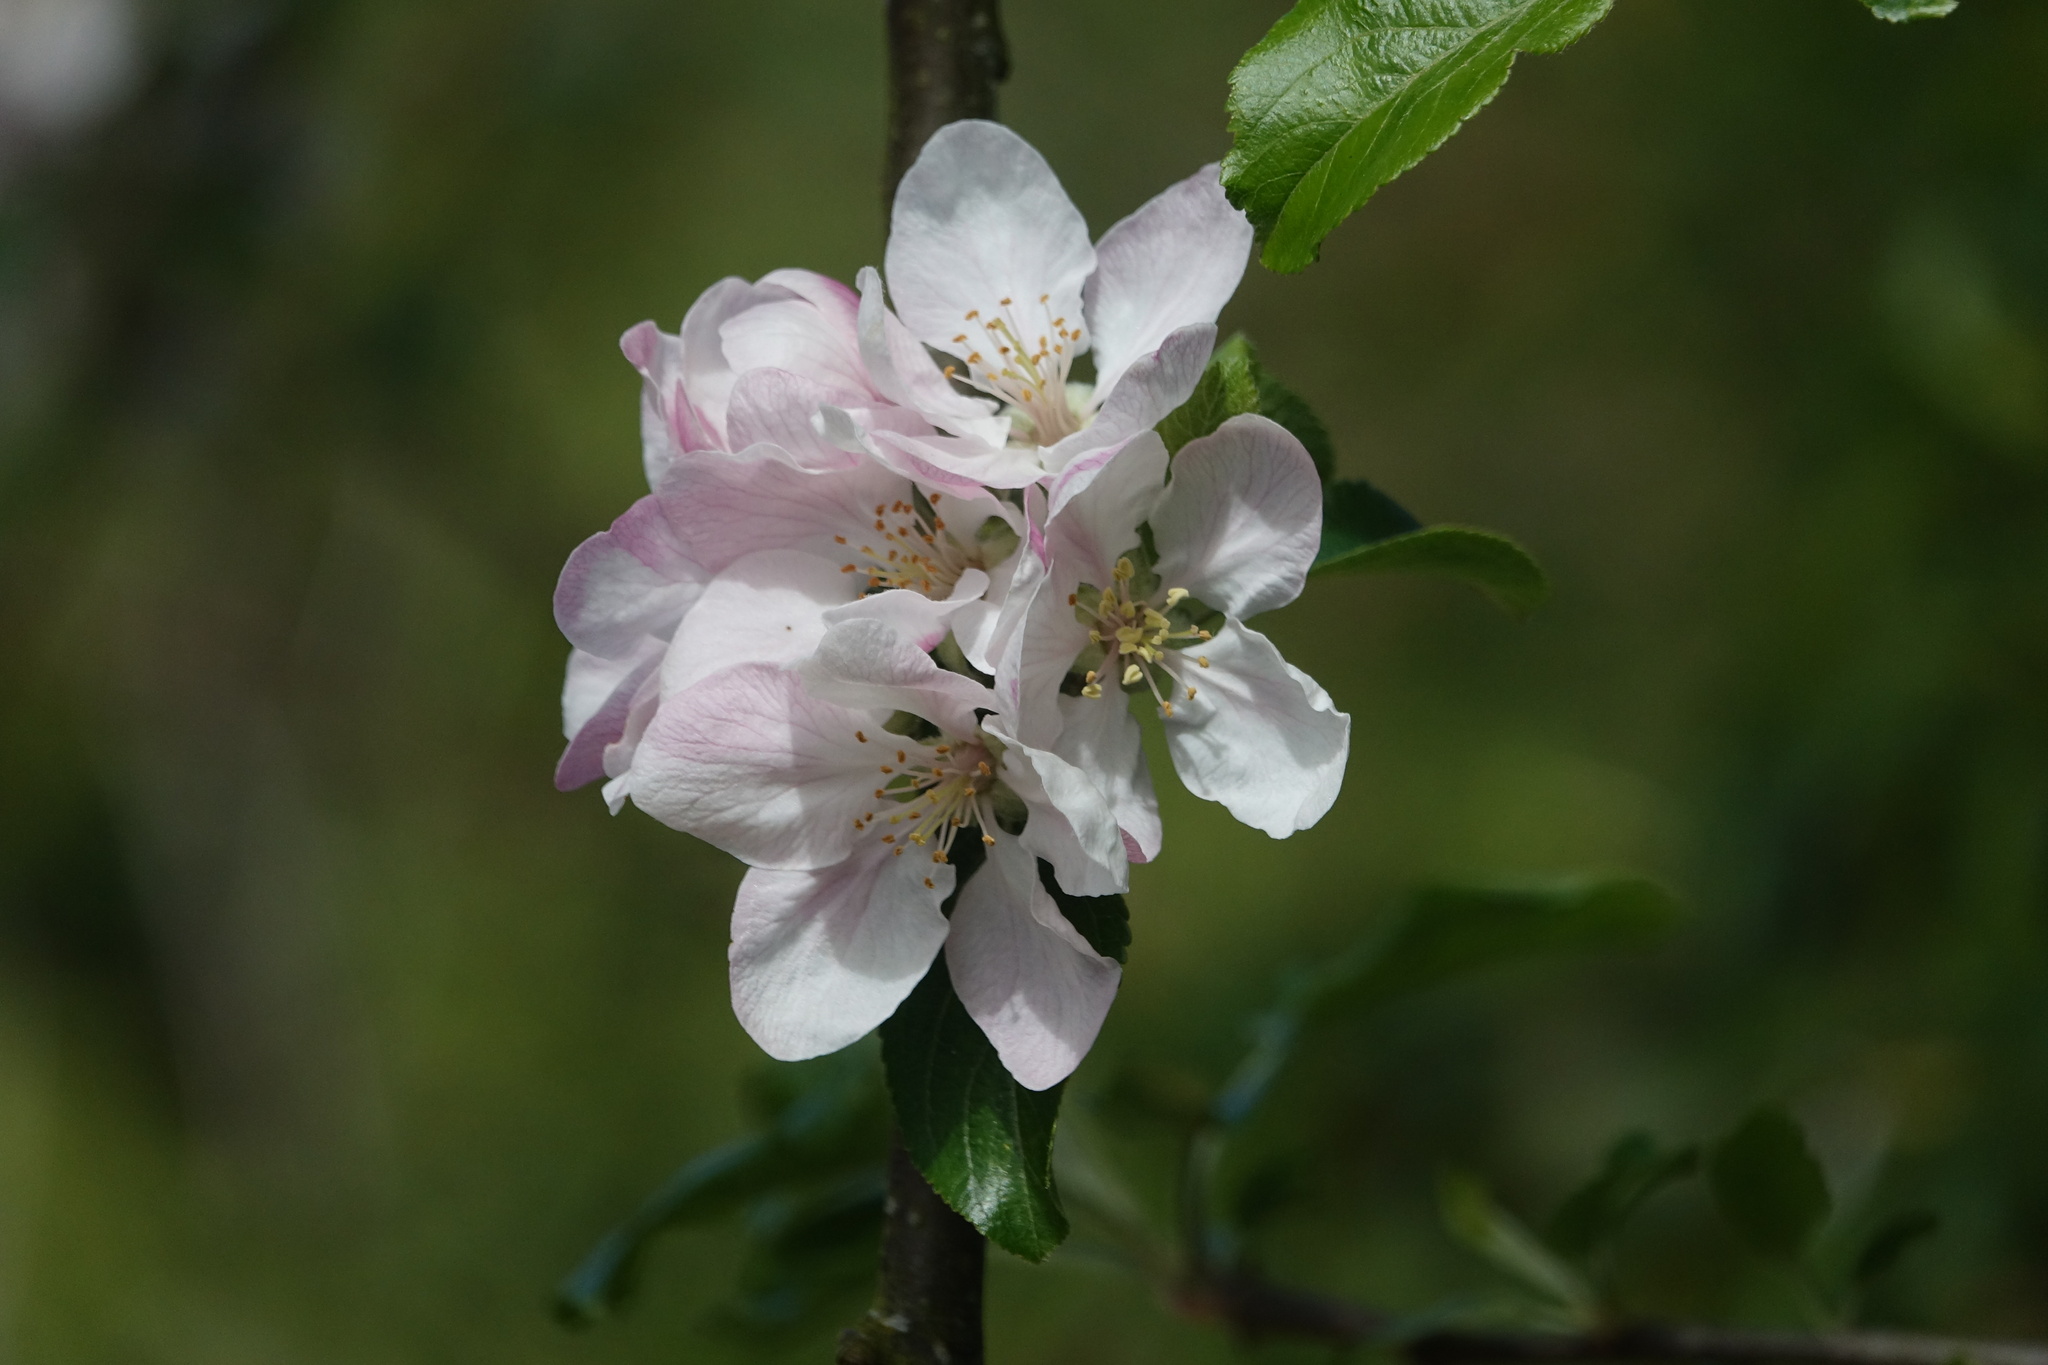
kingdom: Plantae
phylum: Tracheophyta
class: Magnoliopsida
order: Rosales
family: Rosaceae
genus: Malus
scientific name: Malus domestica
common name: Apple
